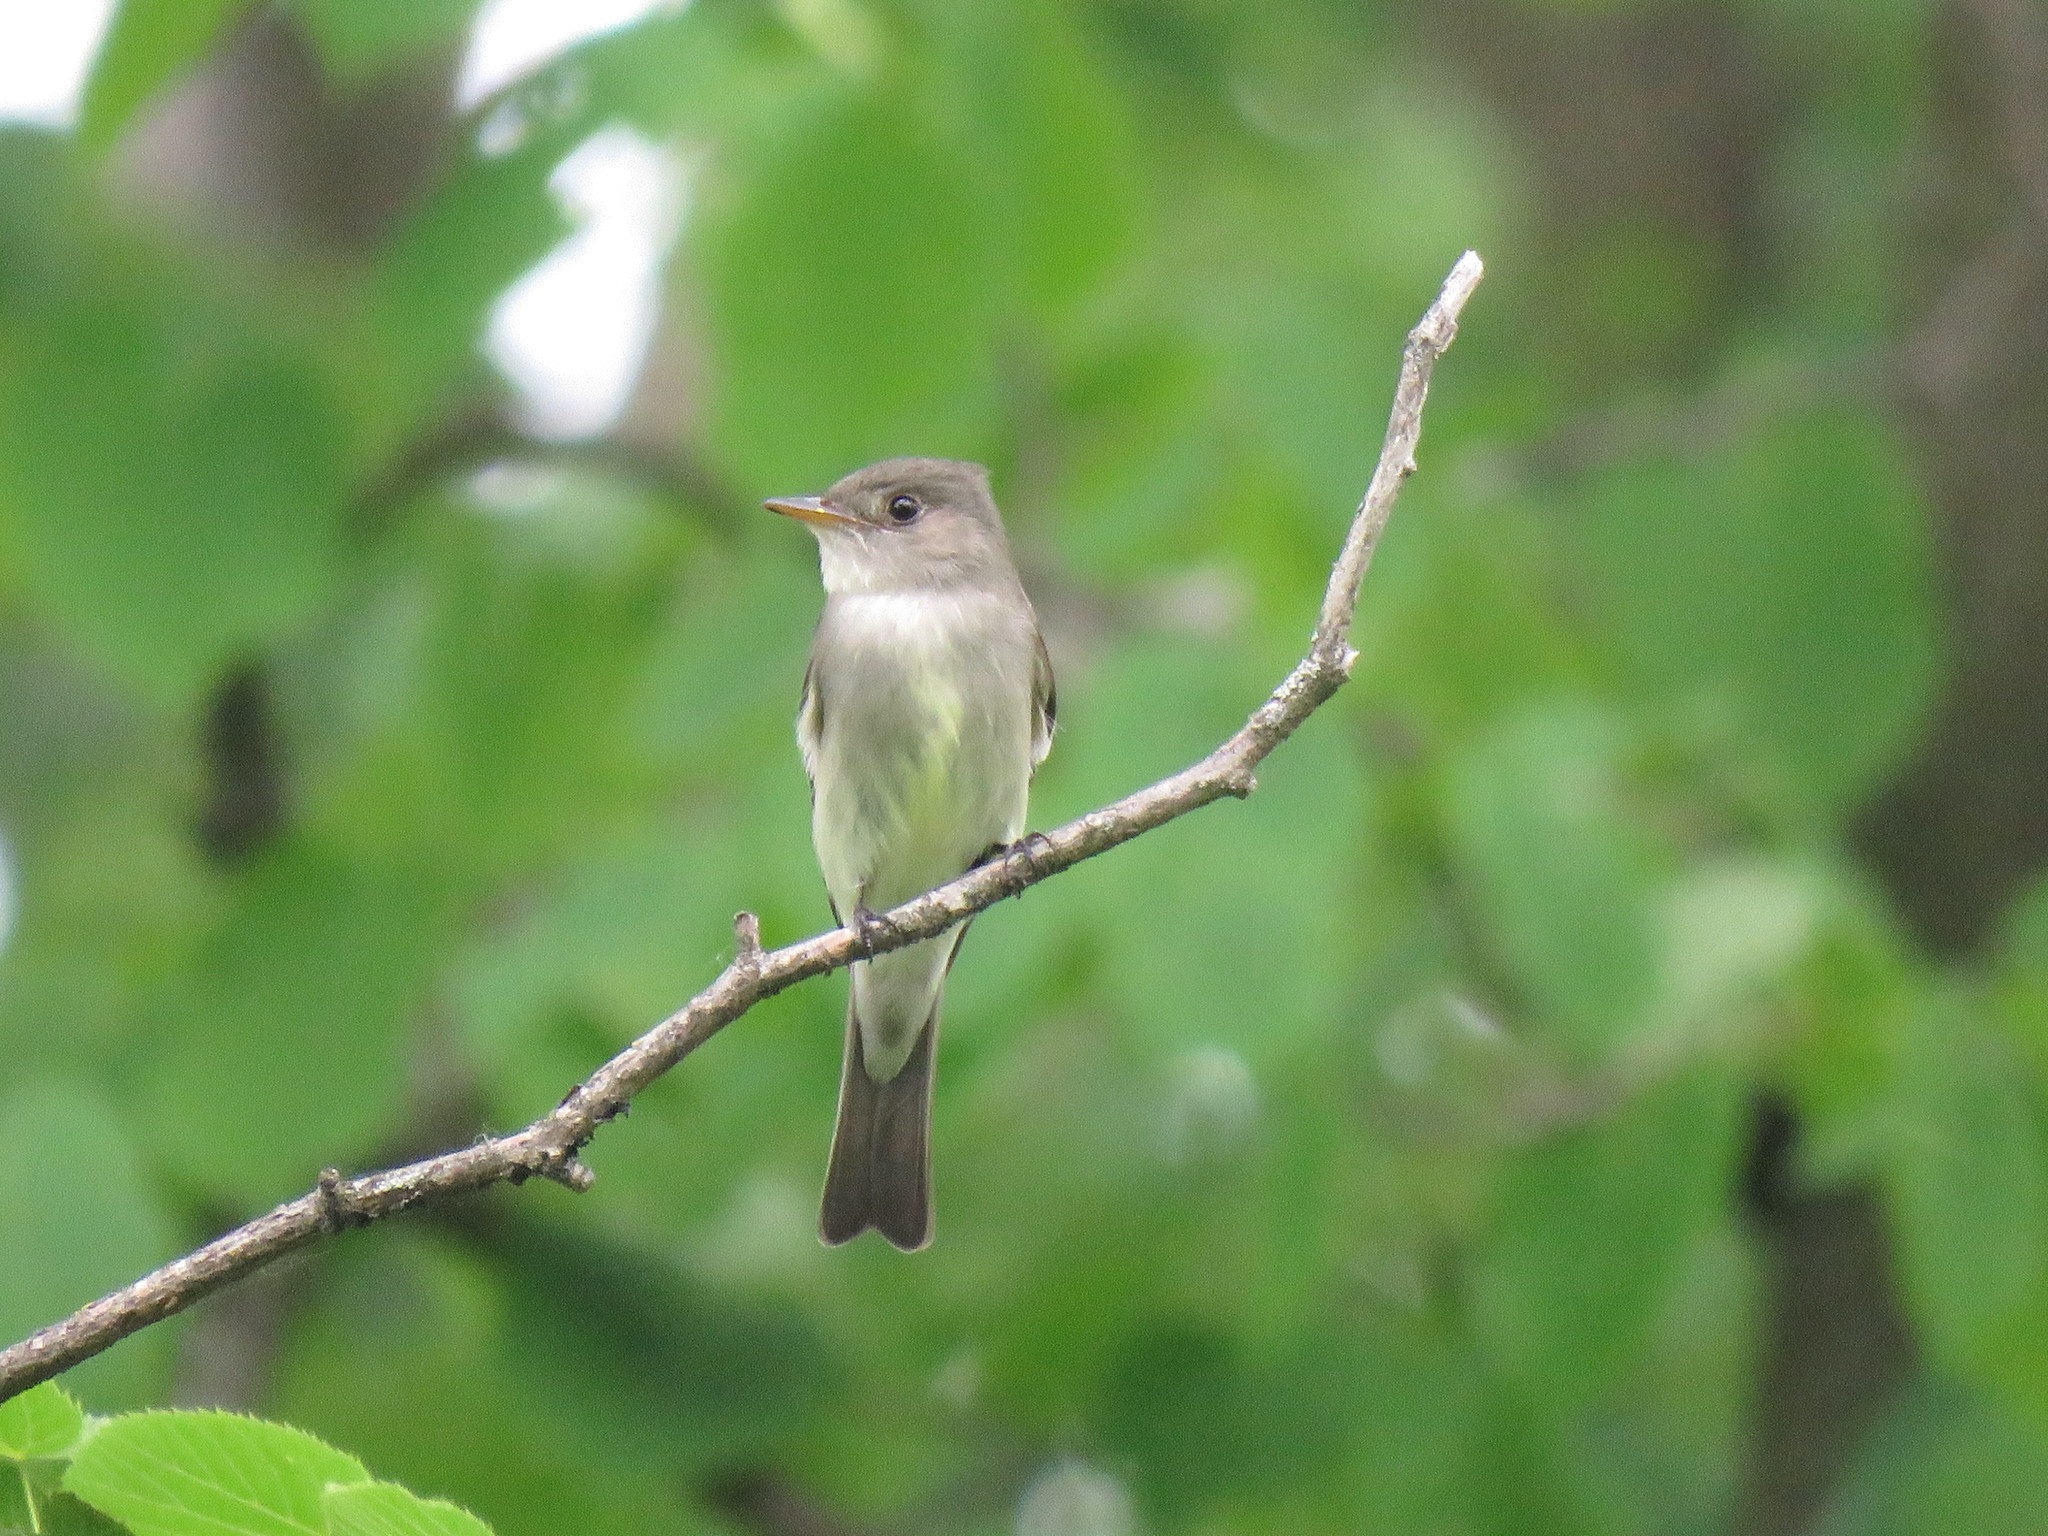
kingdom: Animalia
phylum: Chordata
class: Aves
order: Passeriformes
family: Tyrannidae
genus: Contopus
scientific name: Contopus virens
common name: Eastern wood-pewee
